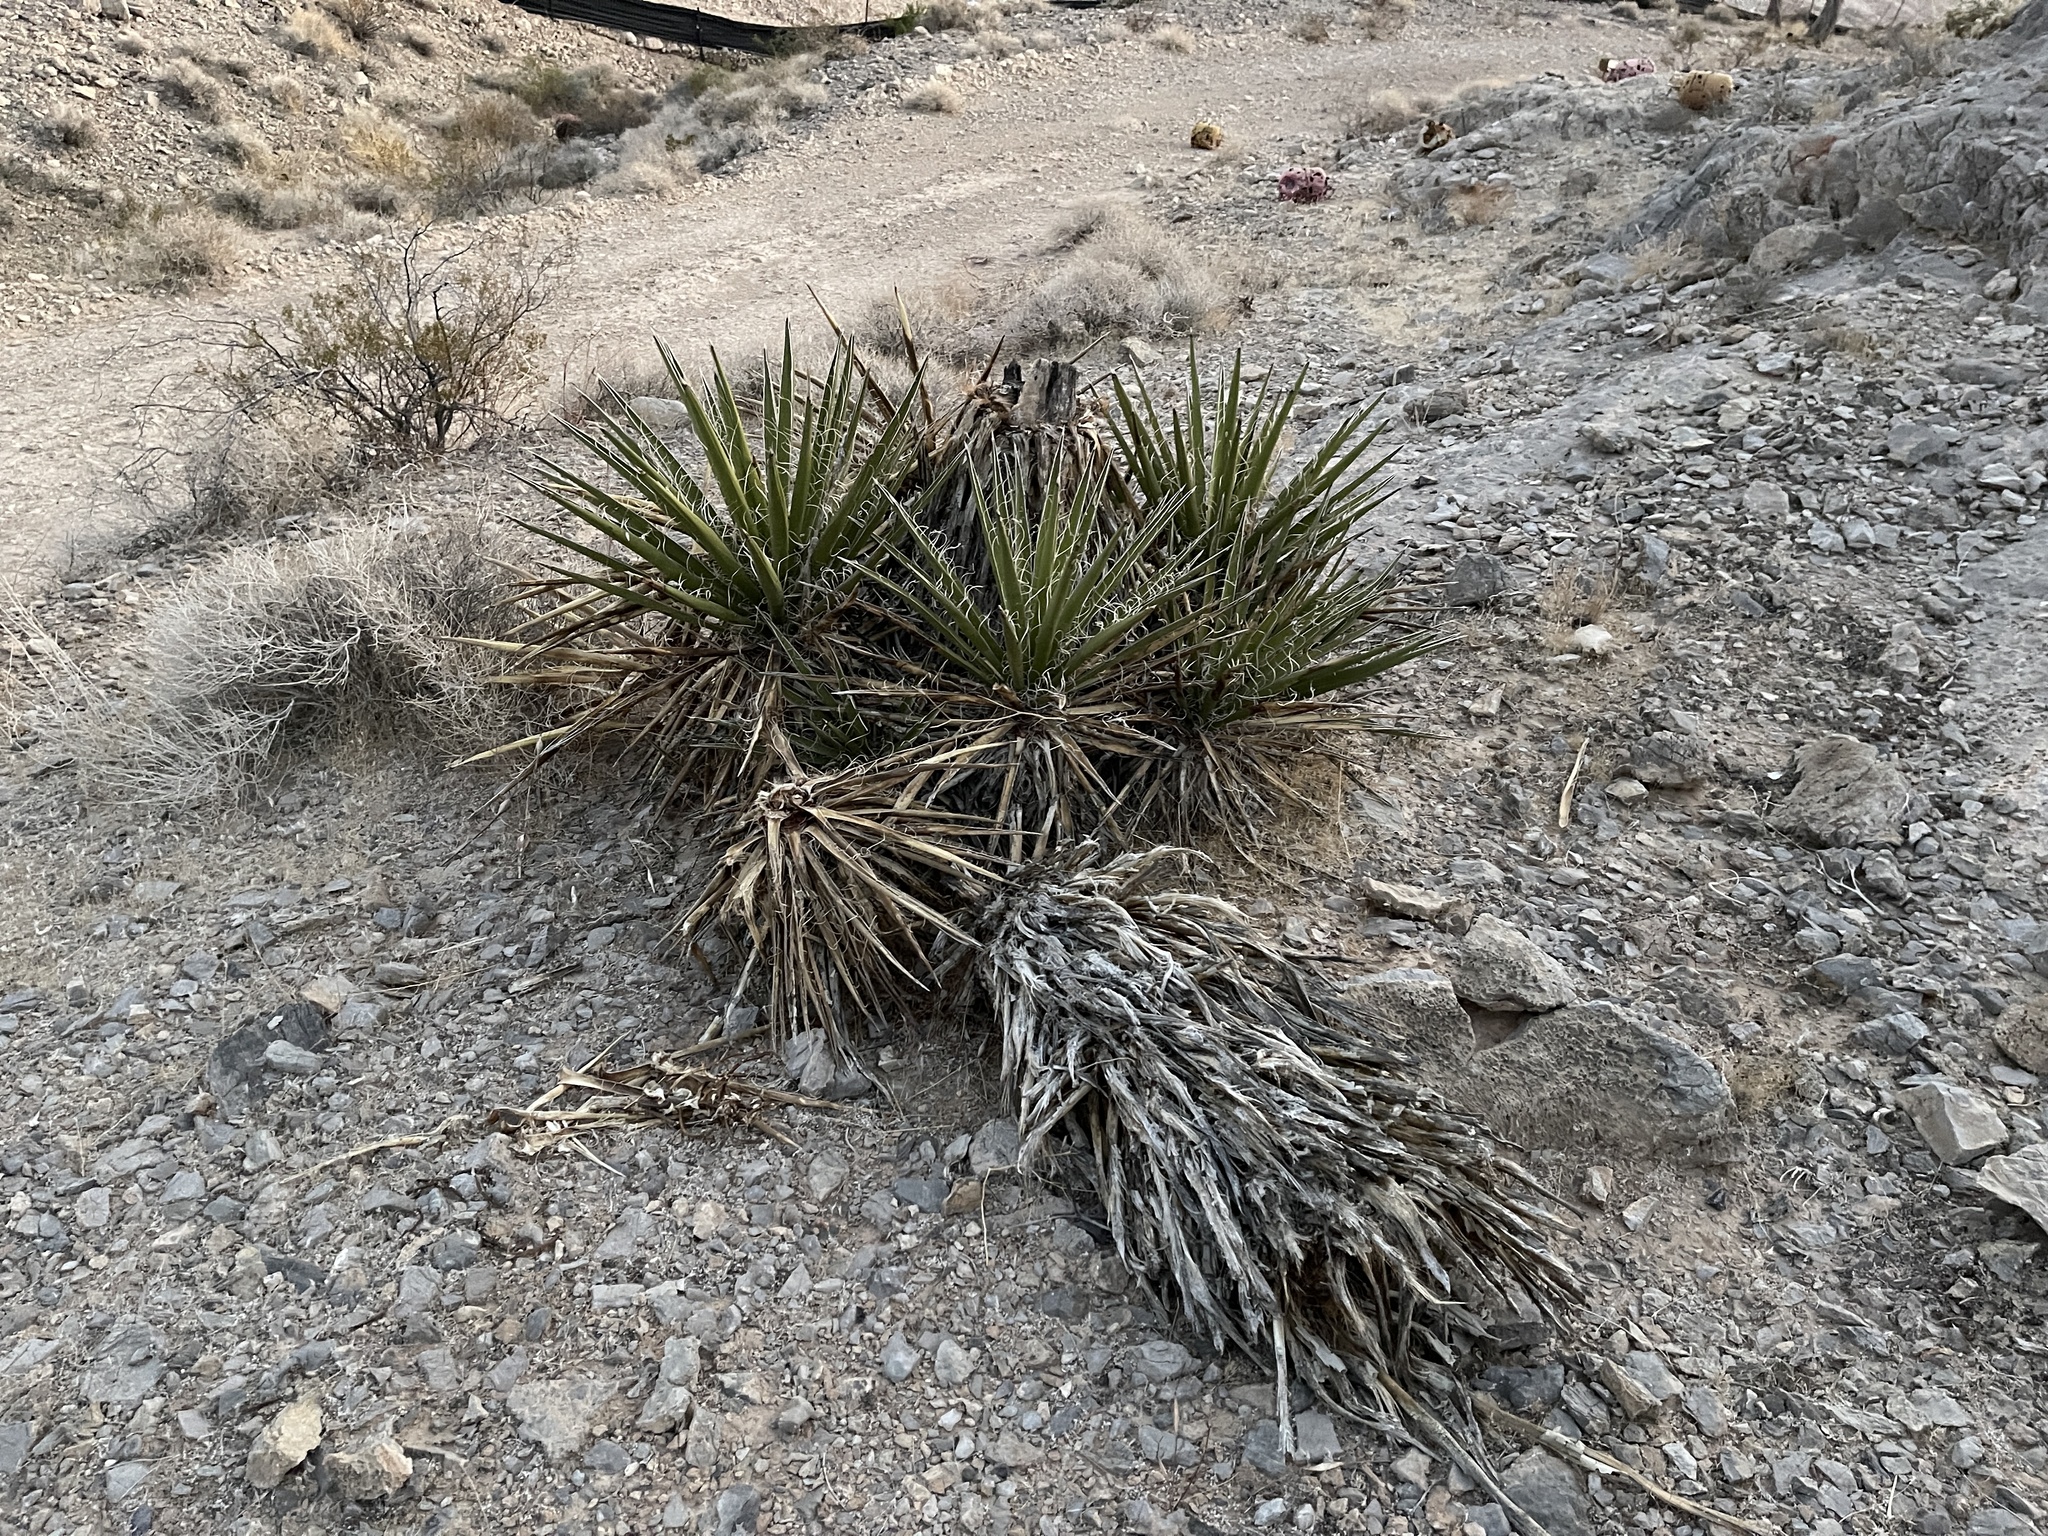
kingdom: Plantae
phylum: Tracheophyta
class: Liliopsida
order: Asparagales
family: Asparagaceae
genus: Yucca
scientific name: Yucca schidigera
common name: Mojave yucca
